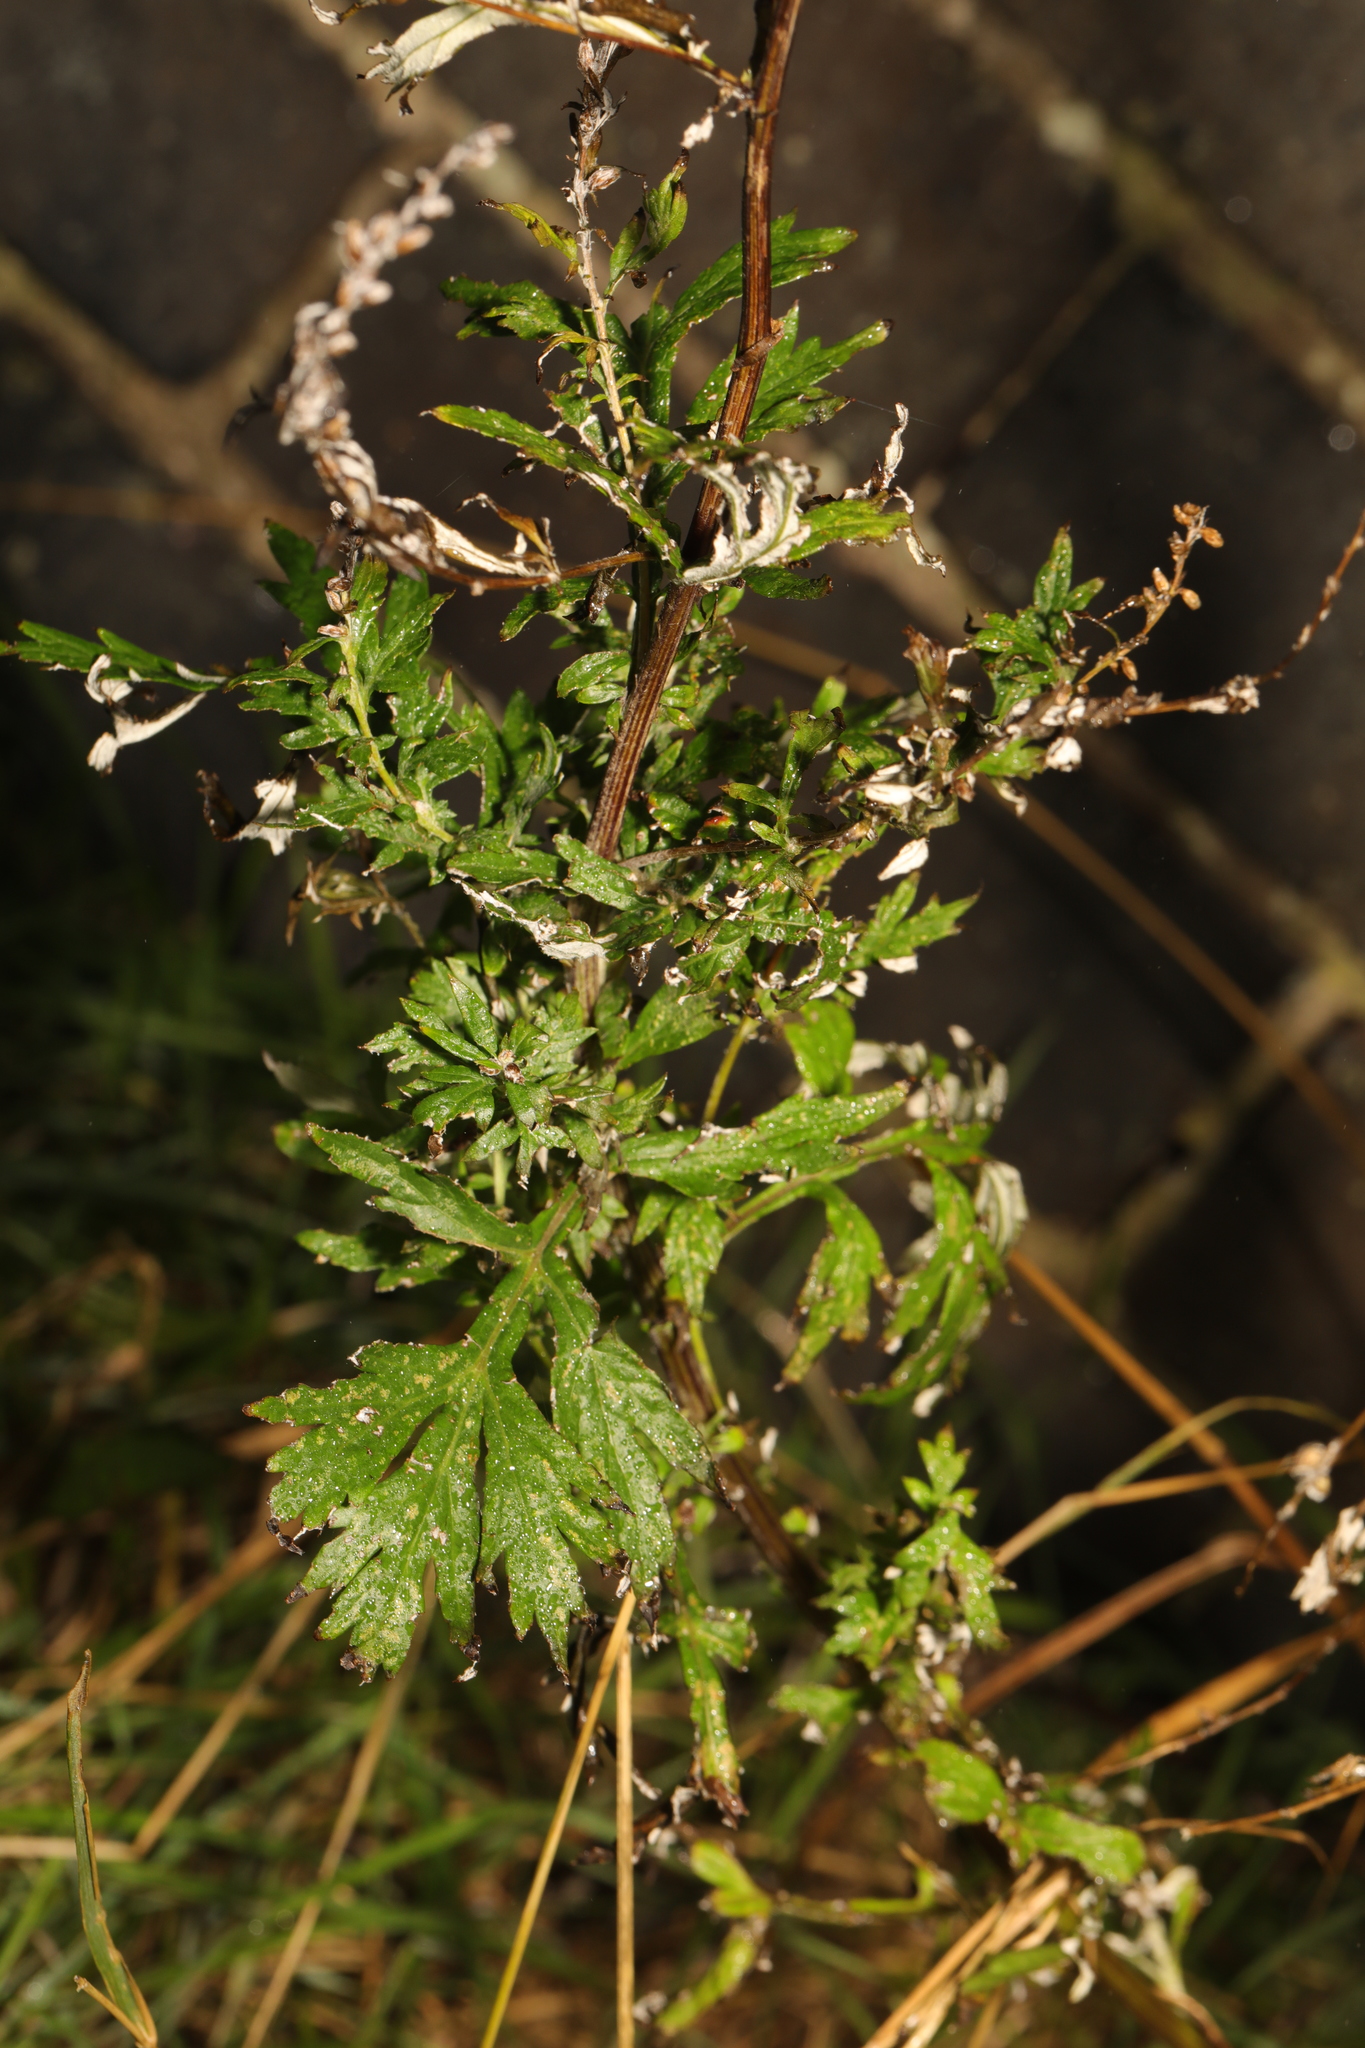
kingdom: Plantae
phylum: Tracheophyta
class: Magnoliopsida
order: Asterales
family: Asteraceae
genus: Artemisia
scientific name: Artemisia vulgaris
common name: Mugwort
